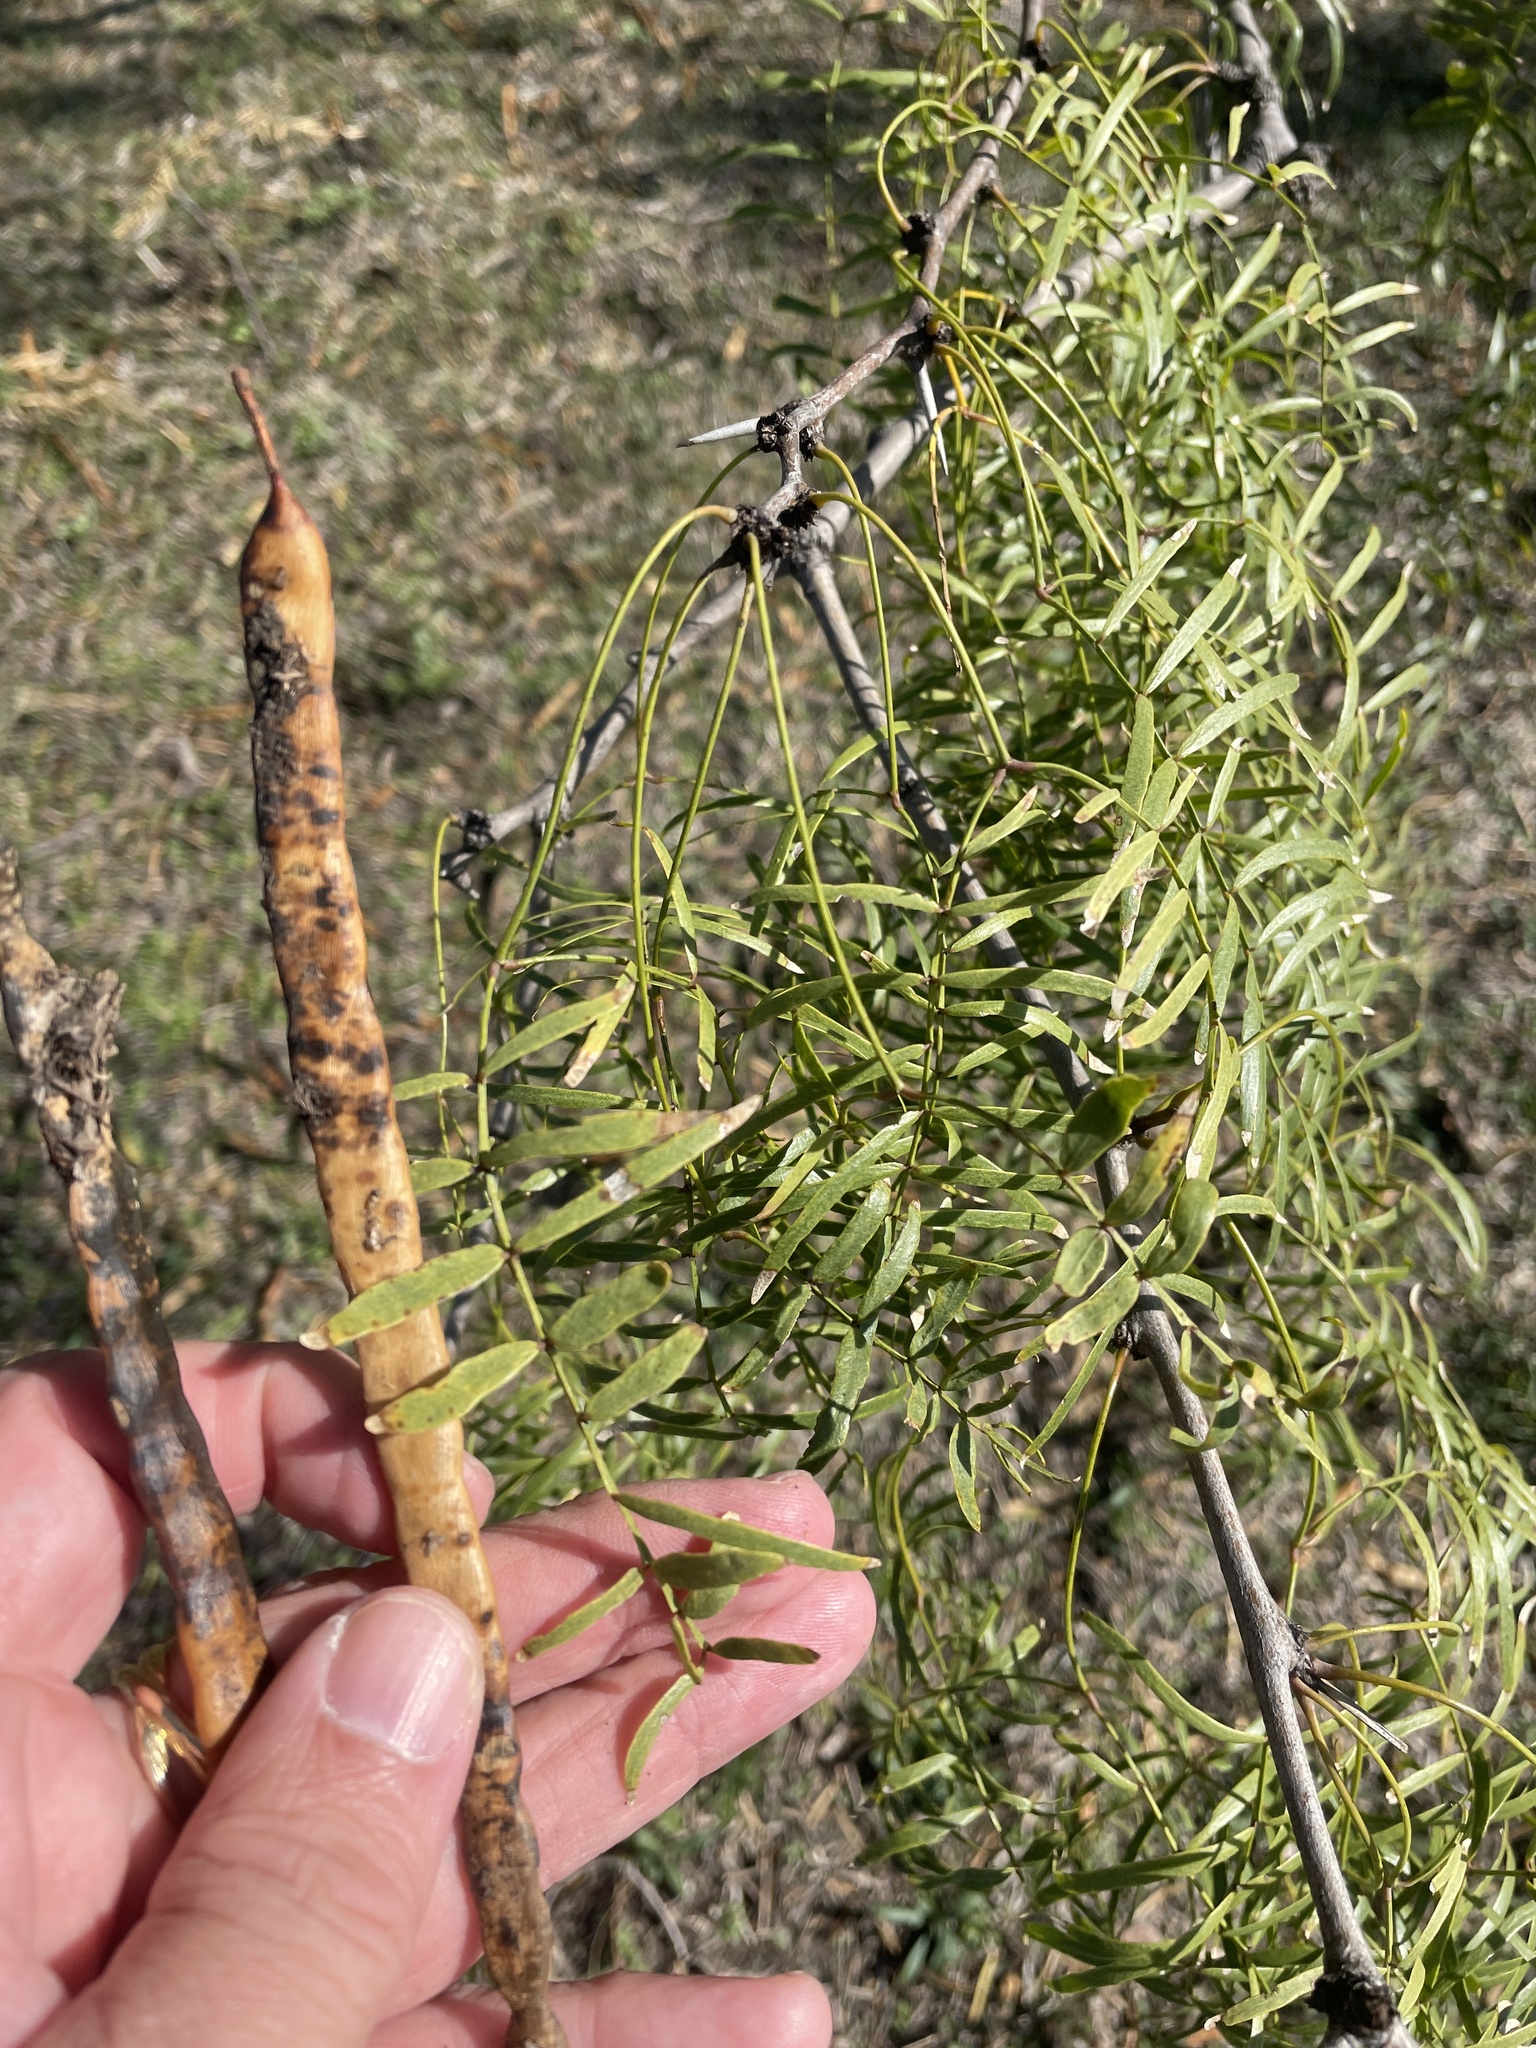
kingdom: Plantae
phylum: Tracheophyta
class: Magnoliopsida
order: Fabales
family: Fabaceae
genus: Prosopis
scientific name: Prosopis glandulosa
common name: Honey mesquite
